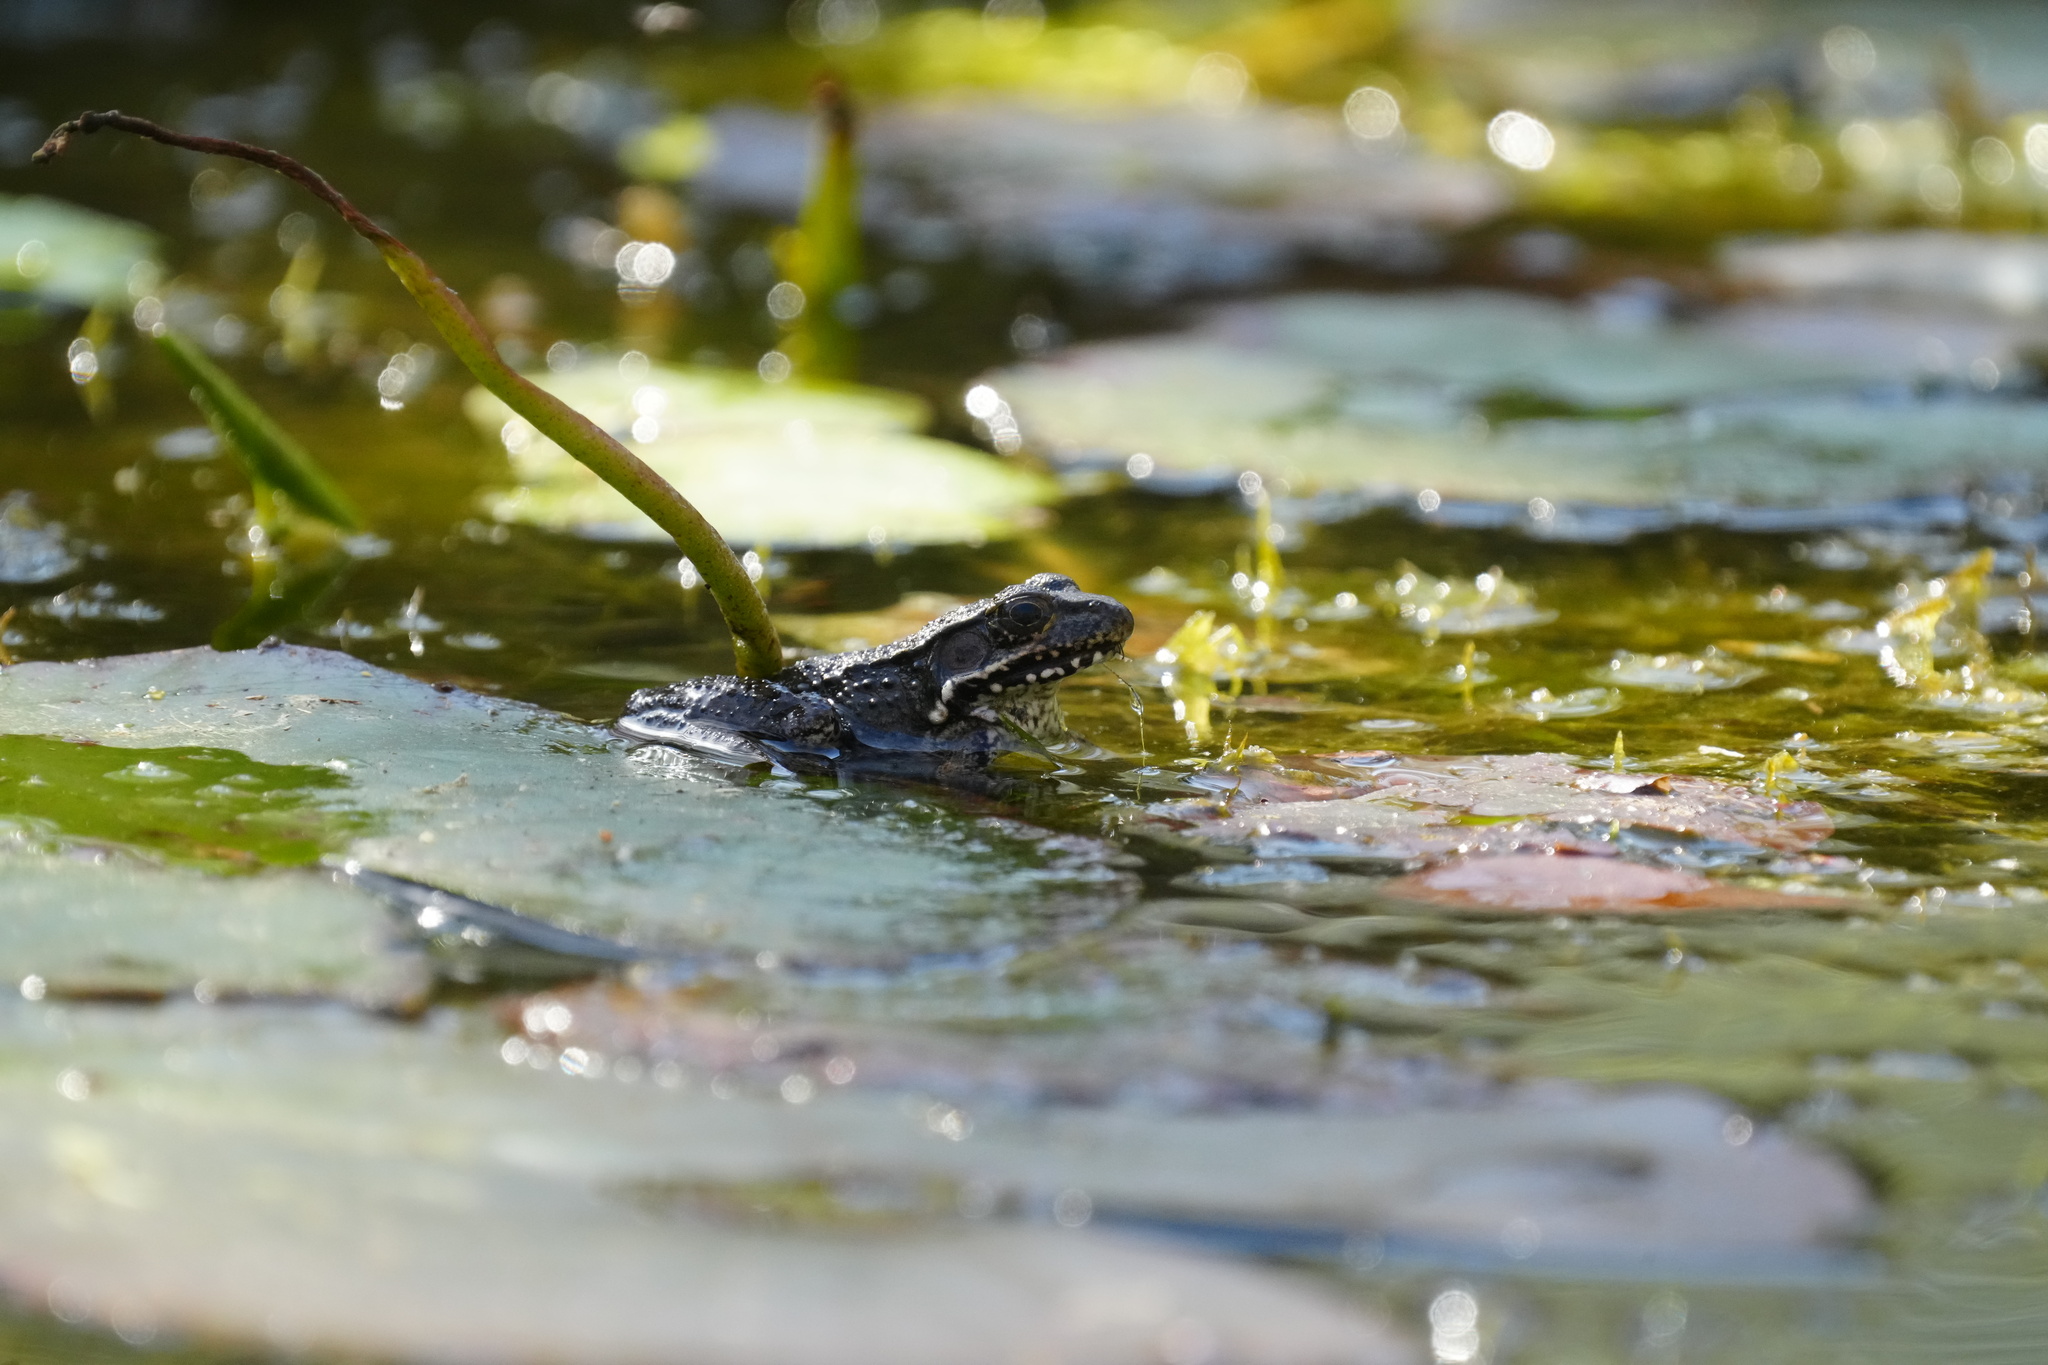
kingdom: Animalia
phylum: Chordata
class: Amphibia
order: Anura
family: Ranidae
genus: Lithobates
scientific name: Lithobates clamitans
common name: Green frog
